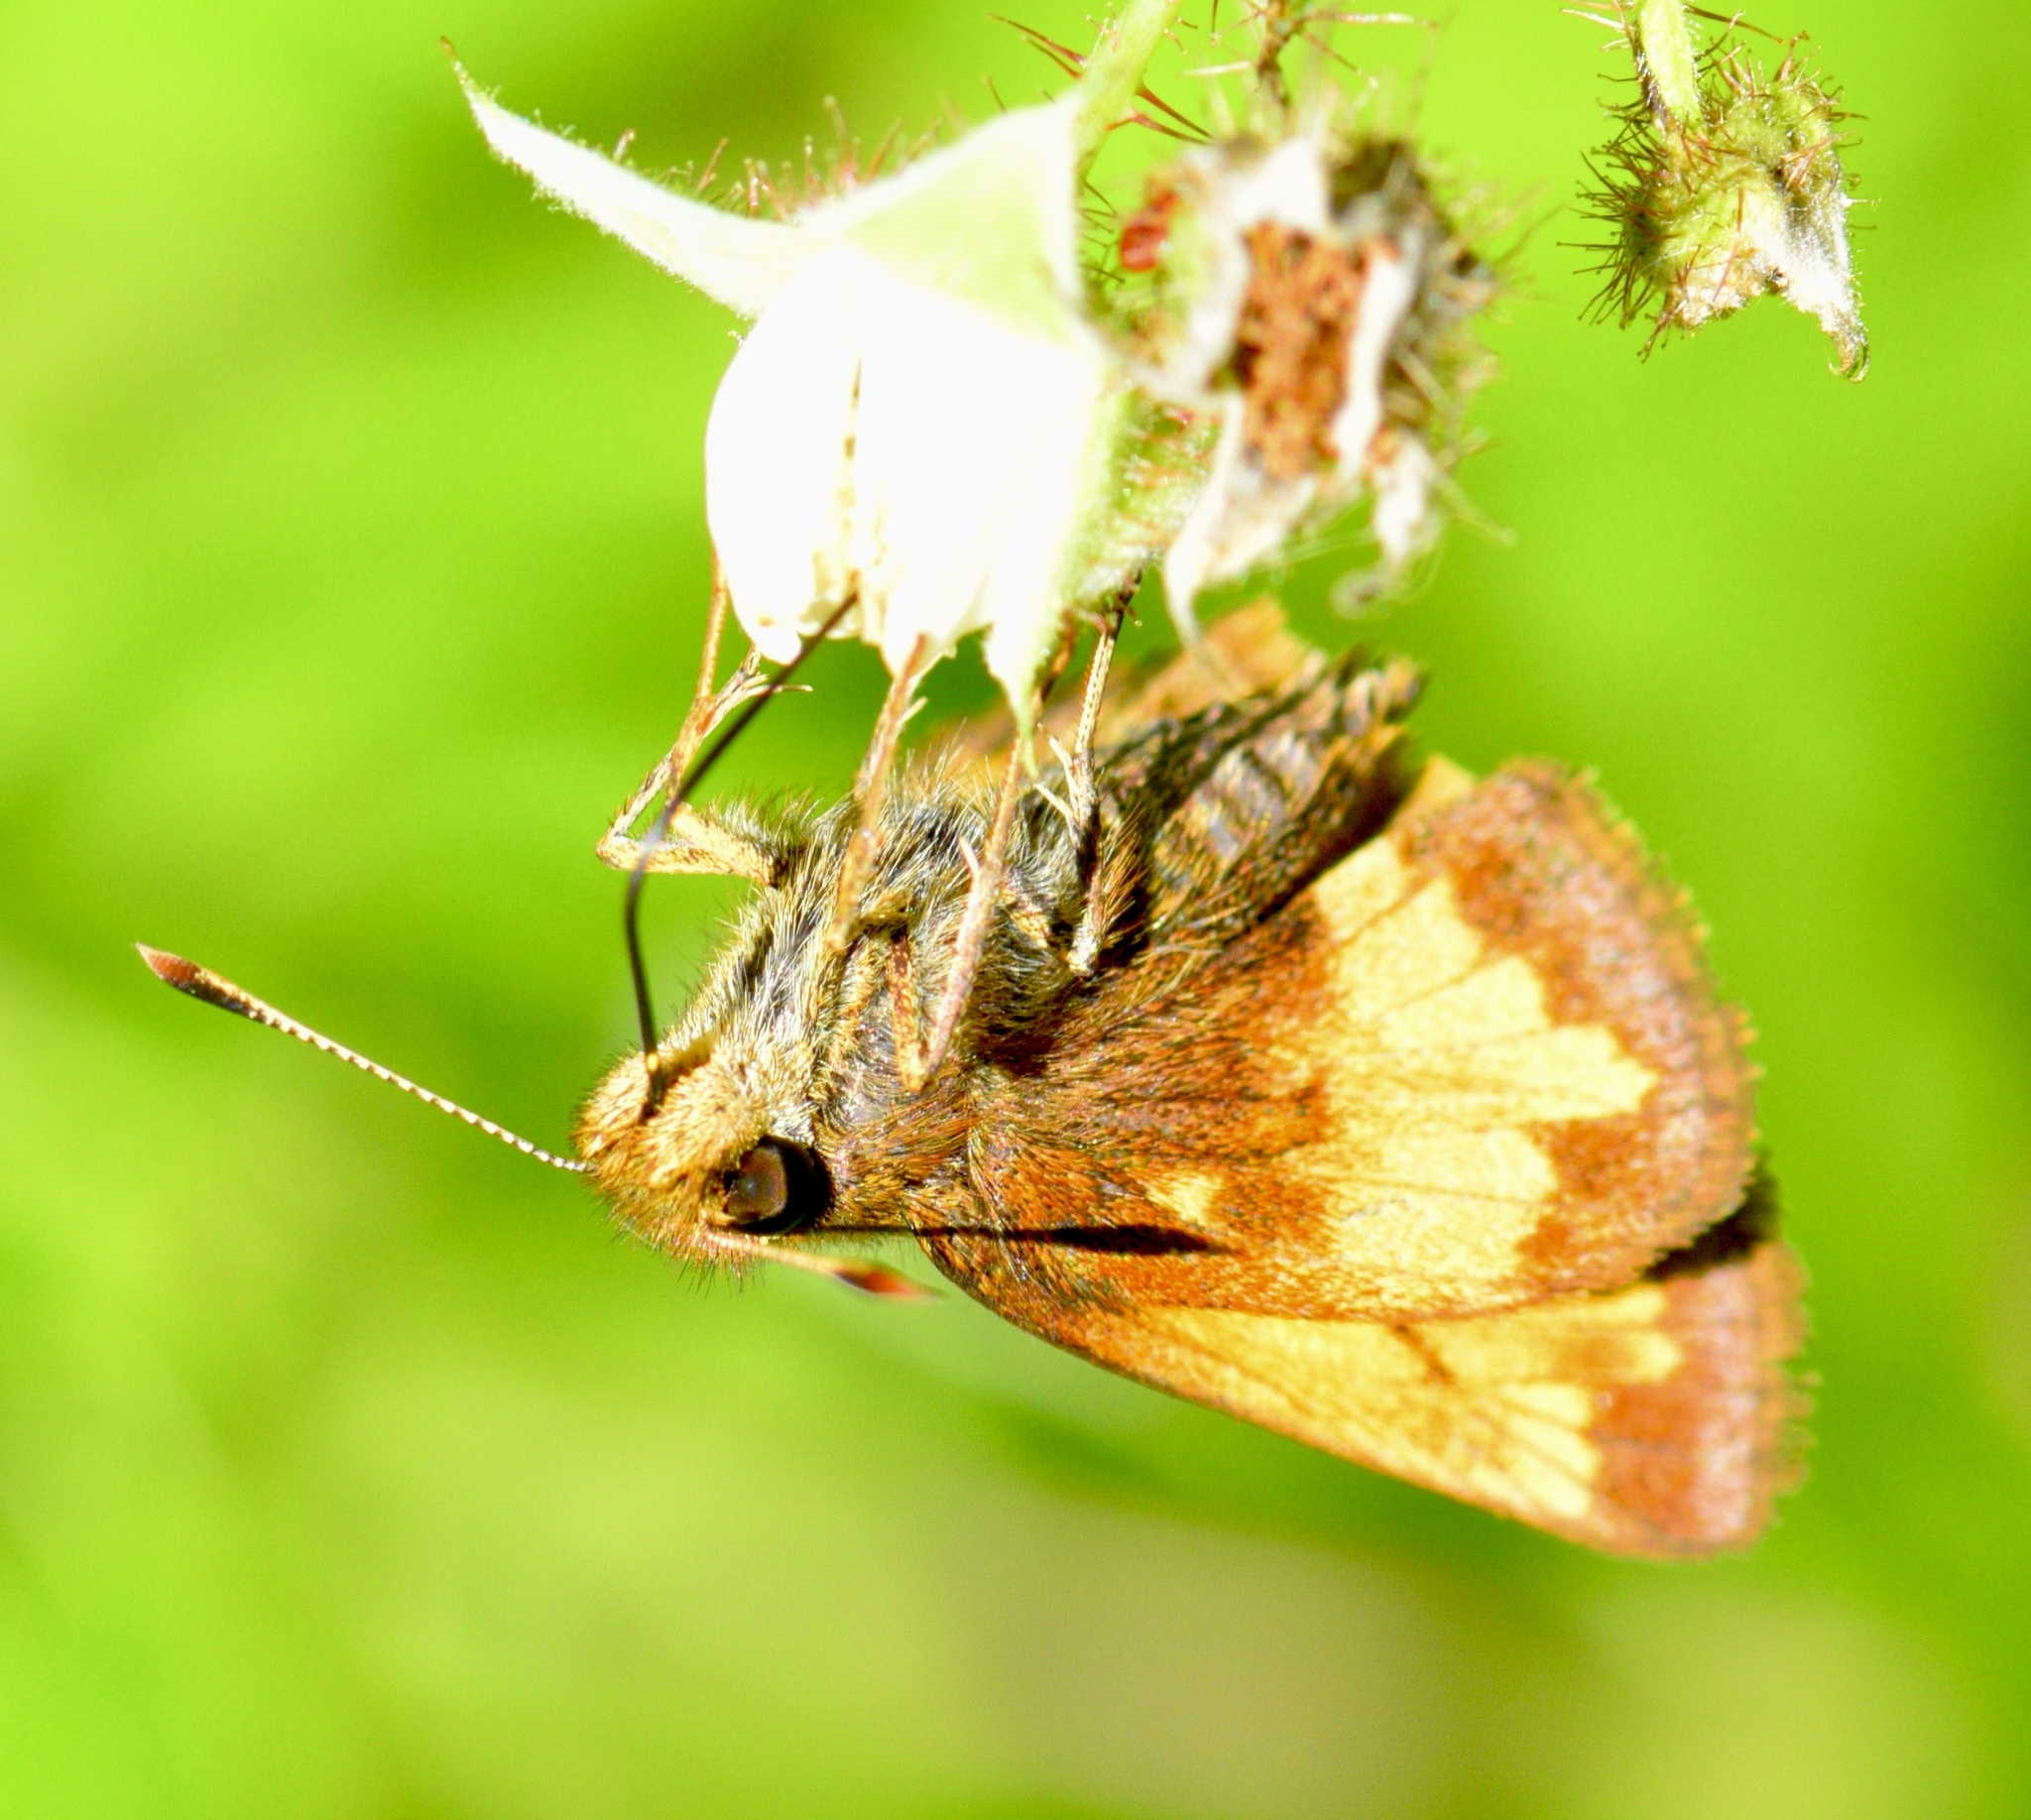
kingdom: Animalia
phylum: Arthropoda
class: Insecta
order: Lepidoptera
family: Hesperiidae
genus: Lon
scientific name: Lon hobomok
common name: Hobomok skipper
